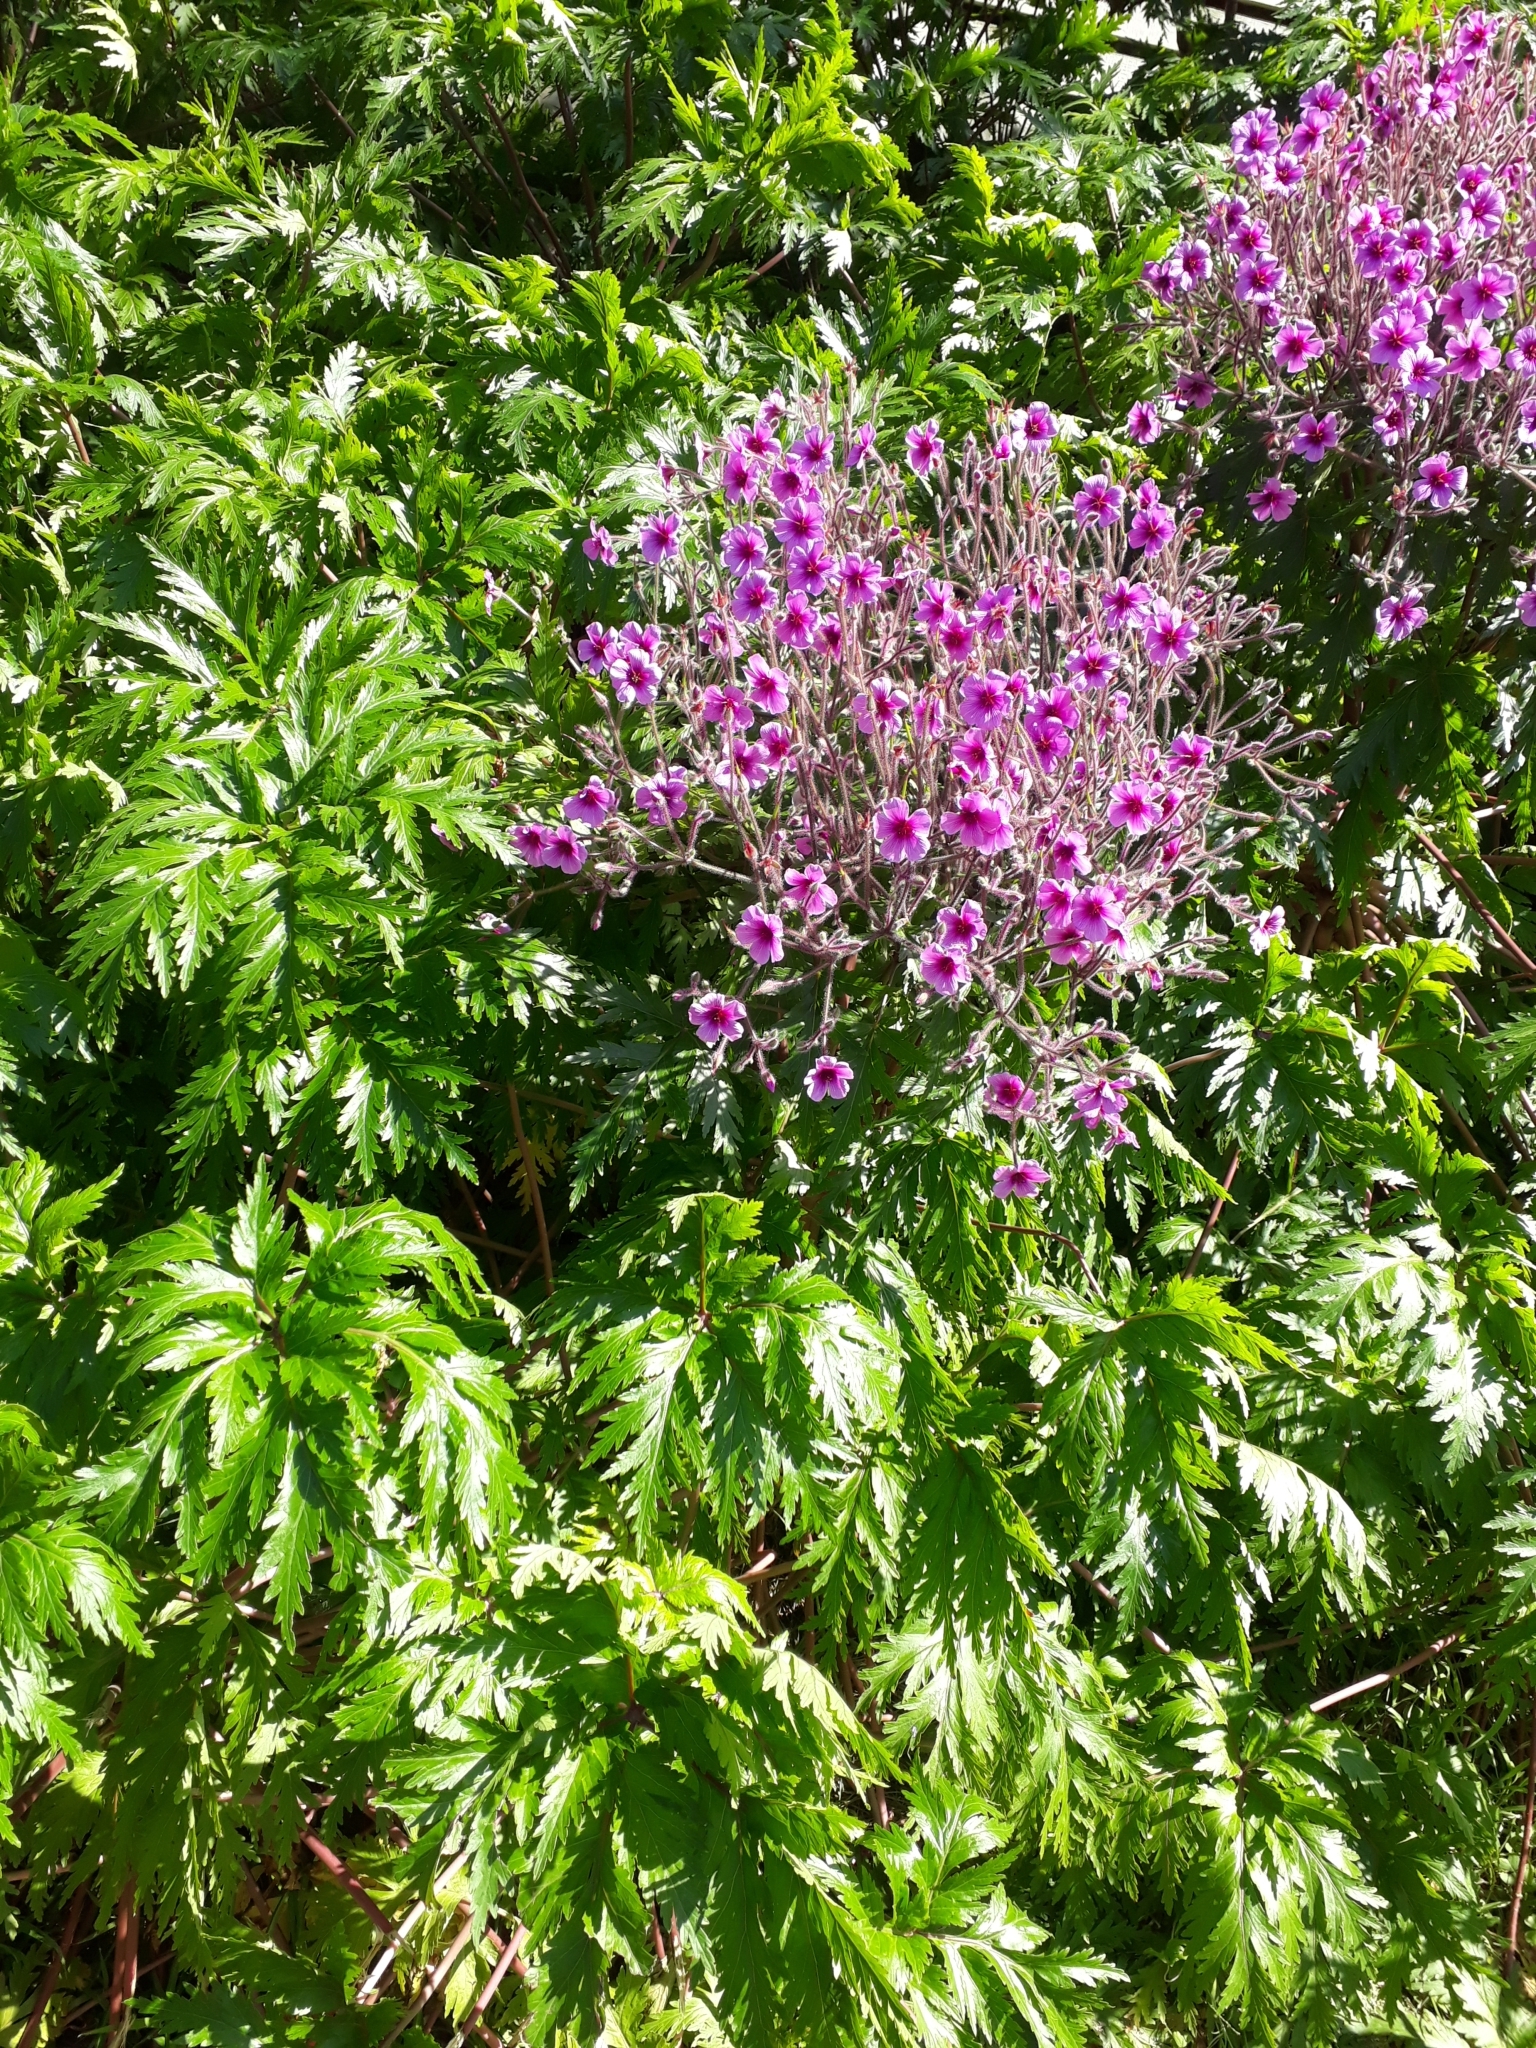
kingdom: Plantae
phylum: Tracheophyta
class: Magnoliopsida
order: Geraniales
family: Geraniaceae
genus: Geranium
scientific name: Geranium maderense
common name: Giant herb-robert
